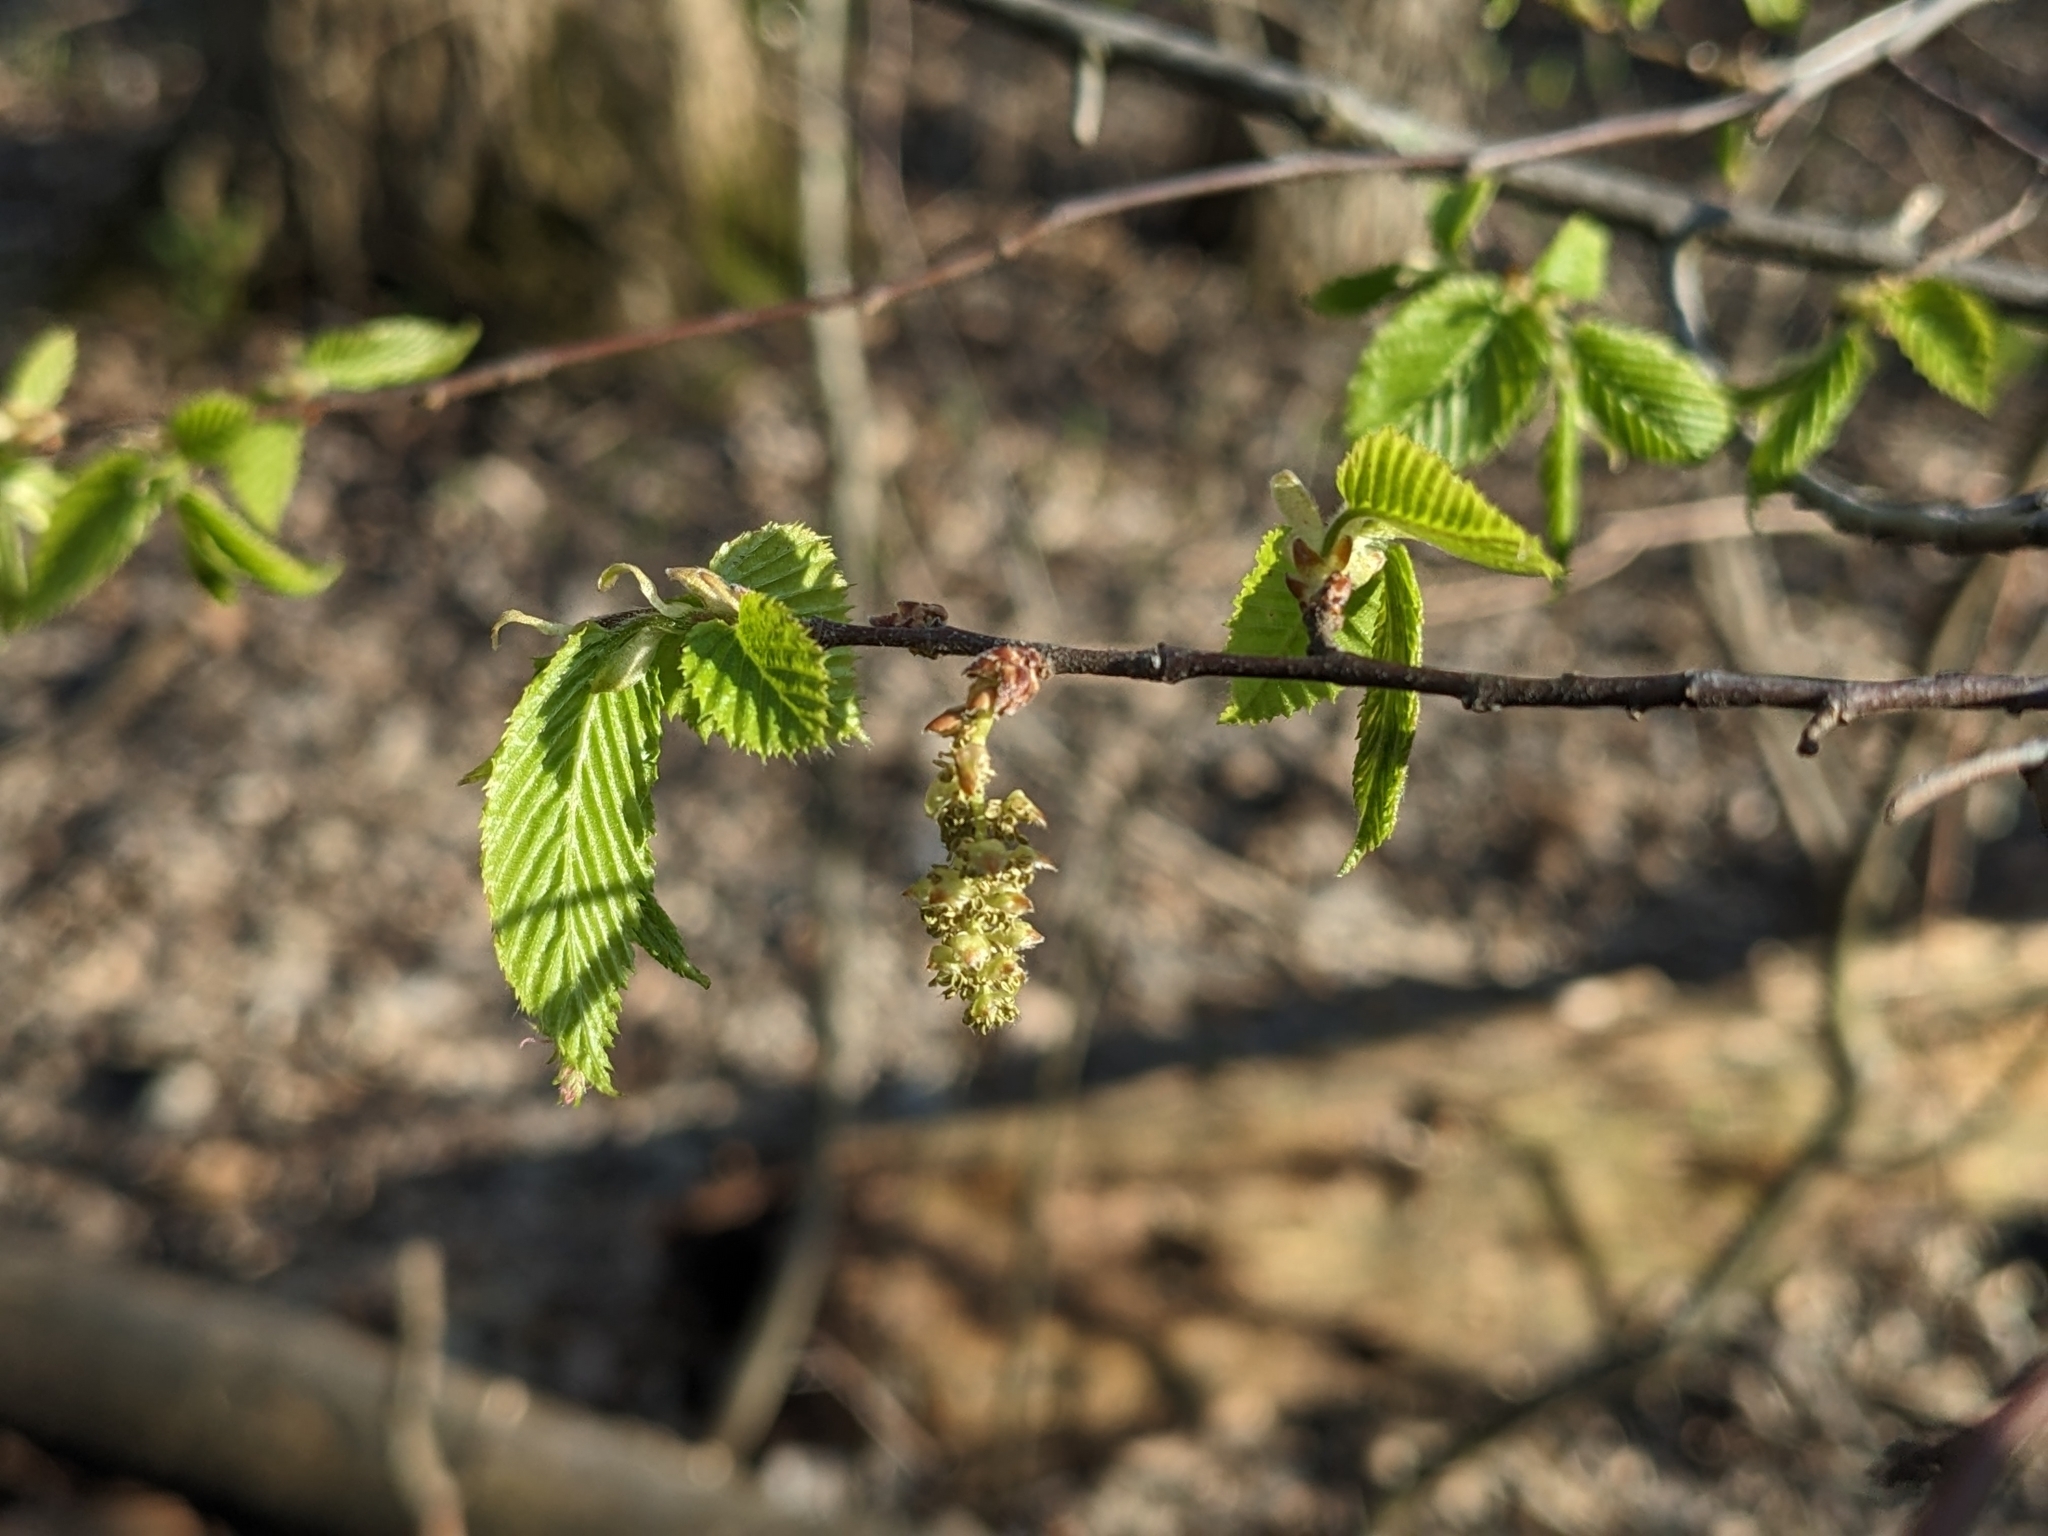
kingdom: Plantae
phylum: Tracheophyta
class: Magnoliopsida
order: Fagales
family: Betulaceae
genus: Carpinus
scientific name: Carpinus caroliniana
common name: American hornbeam
